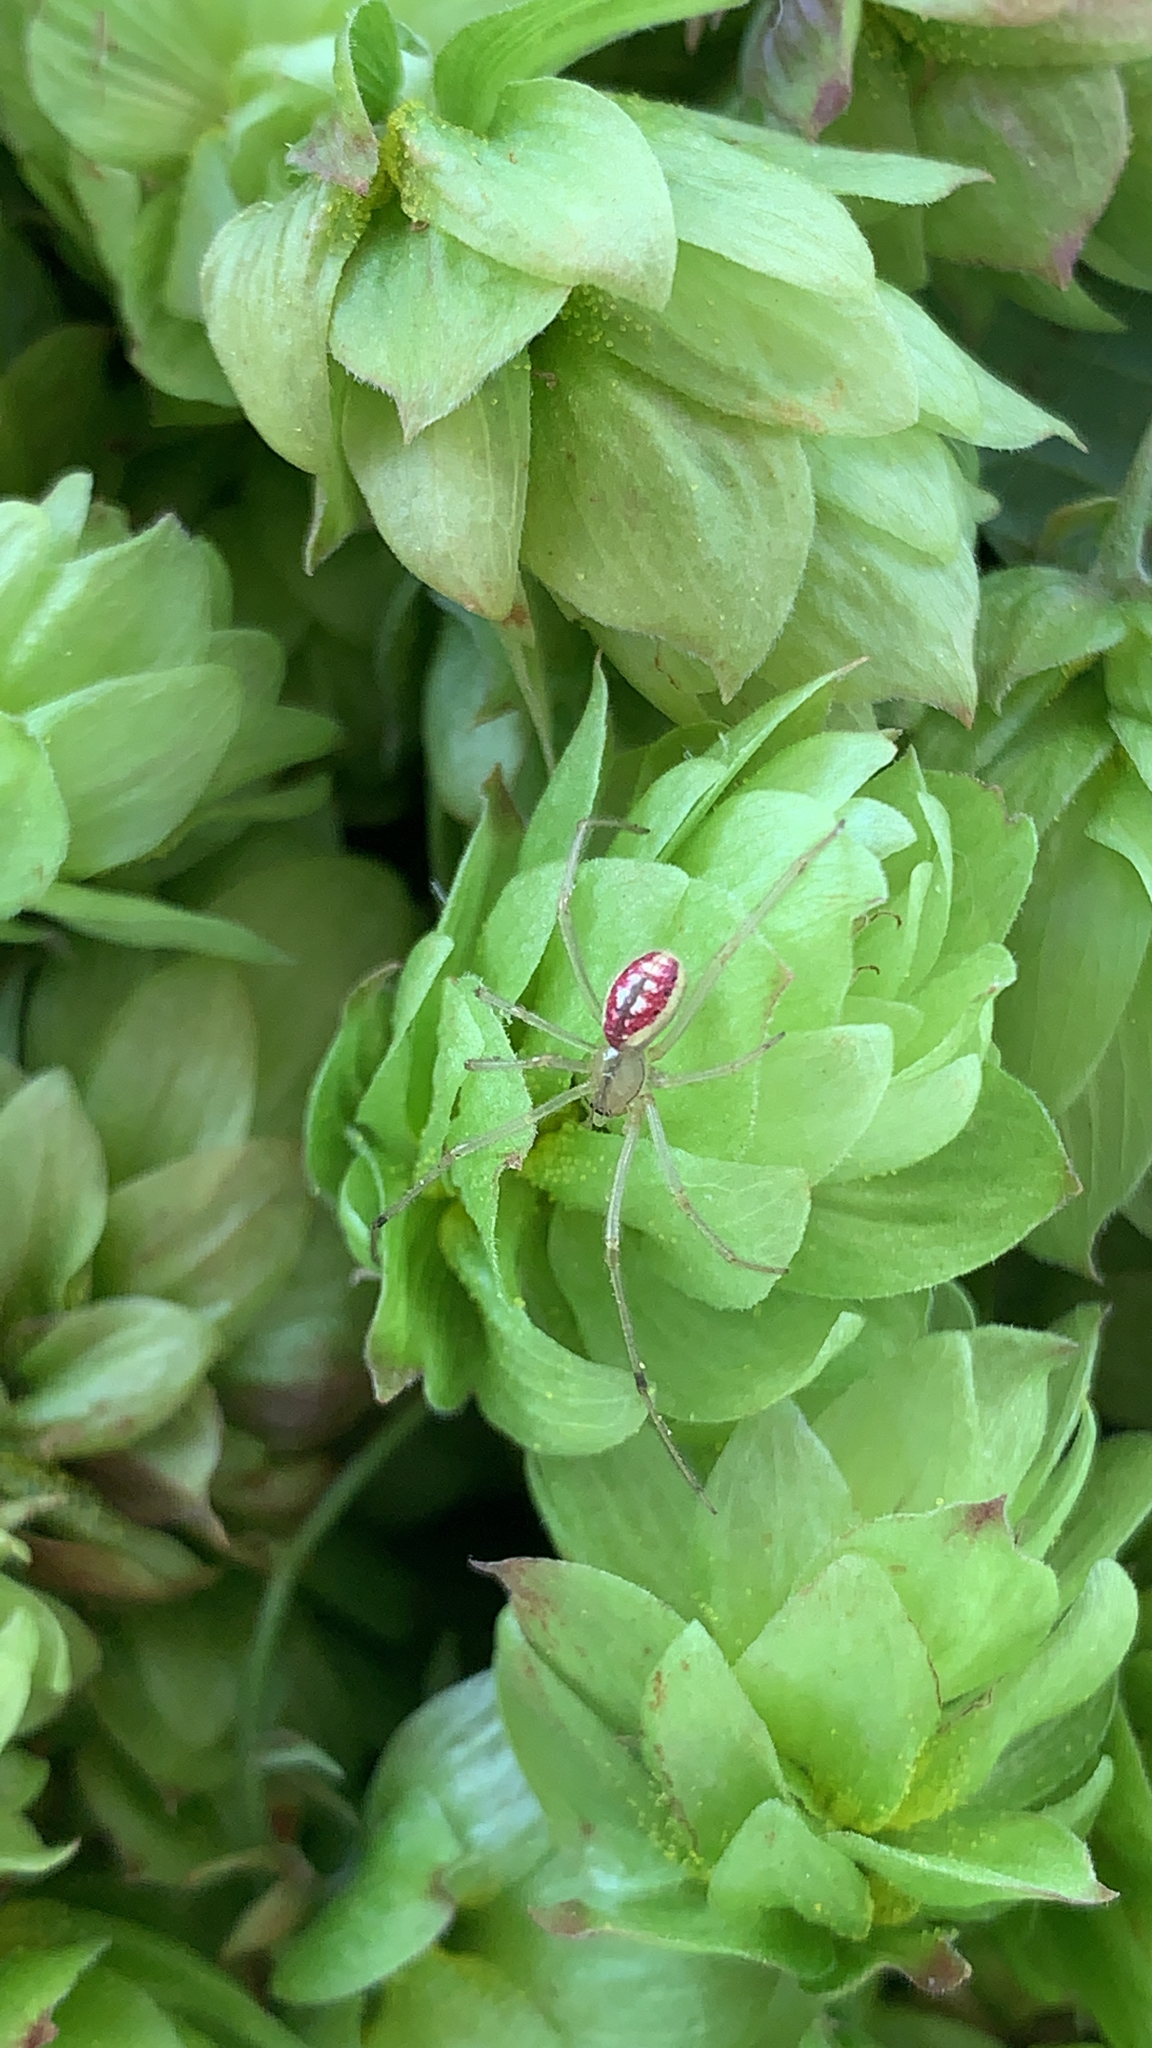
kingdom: Animalia
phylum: Arthropoda
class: Arachnida
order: Araneae
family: Theridiidae
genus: Enoplognatha
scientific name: Enoplognatha ovata
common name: Common candy-striped spider
